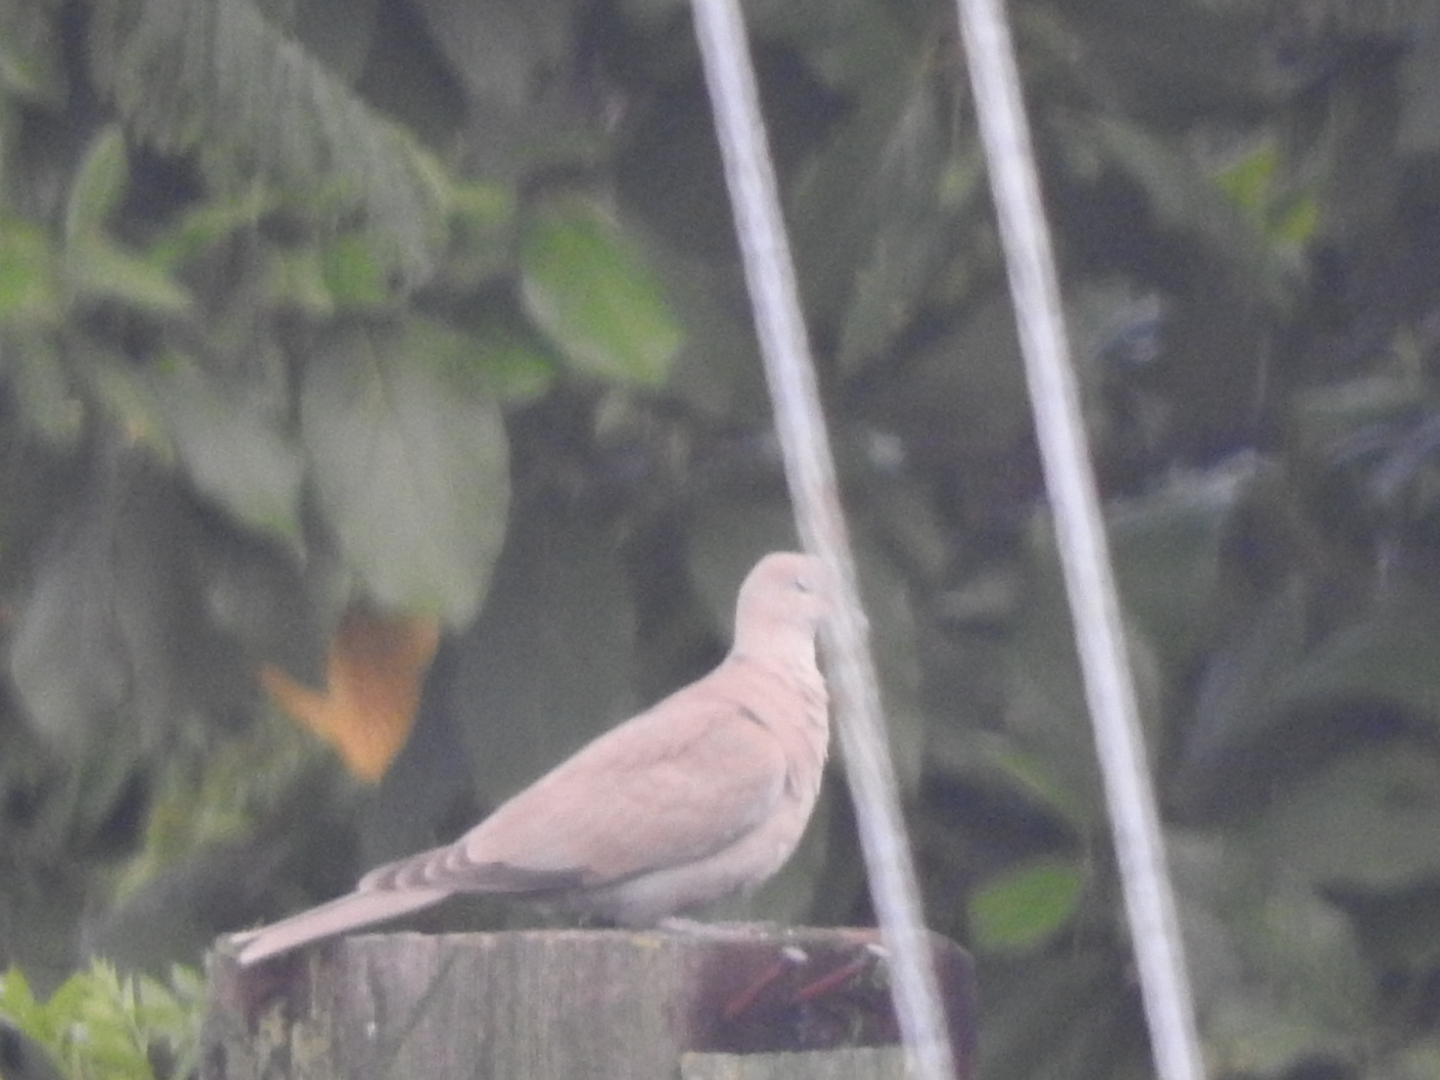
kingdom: Animalia
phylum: Chordata
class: Aves
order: Columbiformes
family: Columbidae
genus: Streptopelia
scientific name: Streptopelia decaocto
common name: Eurasian collared dove
